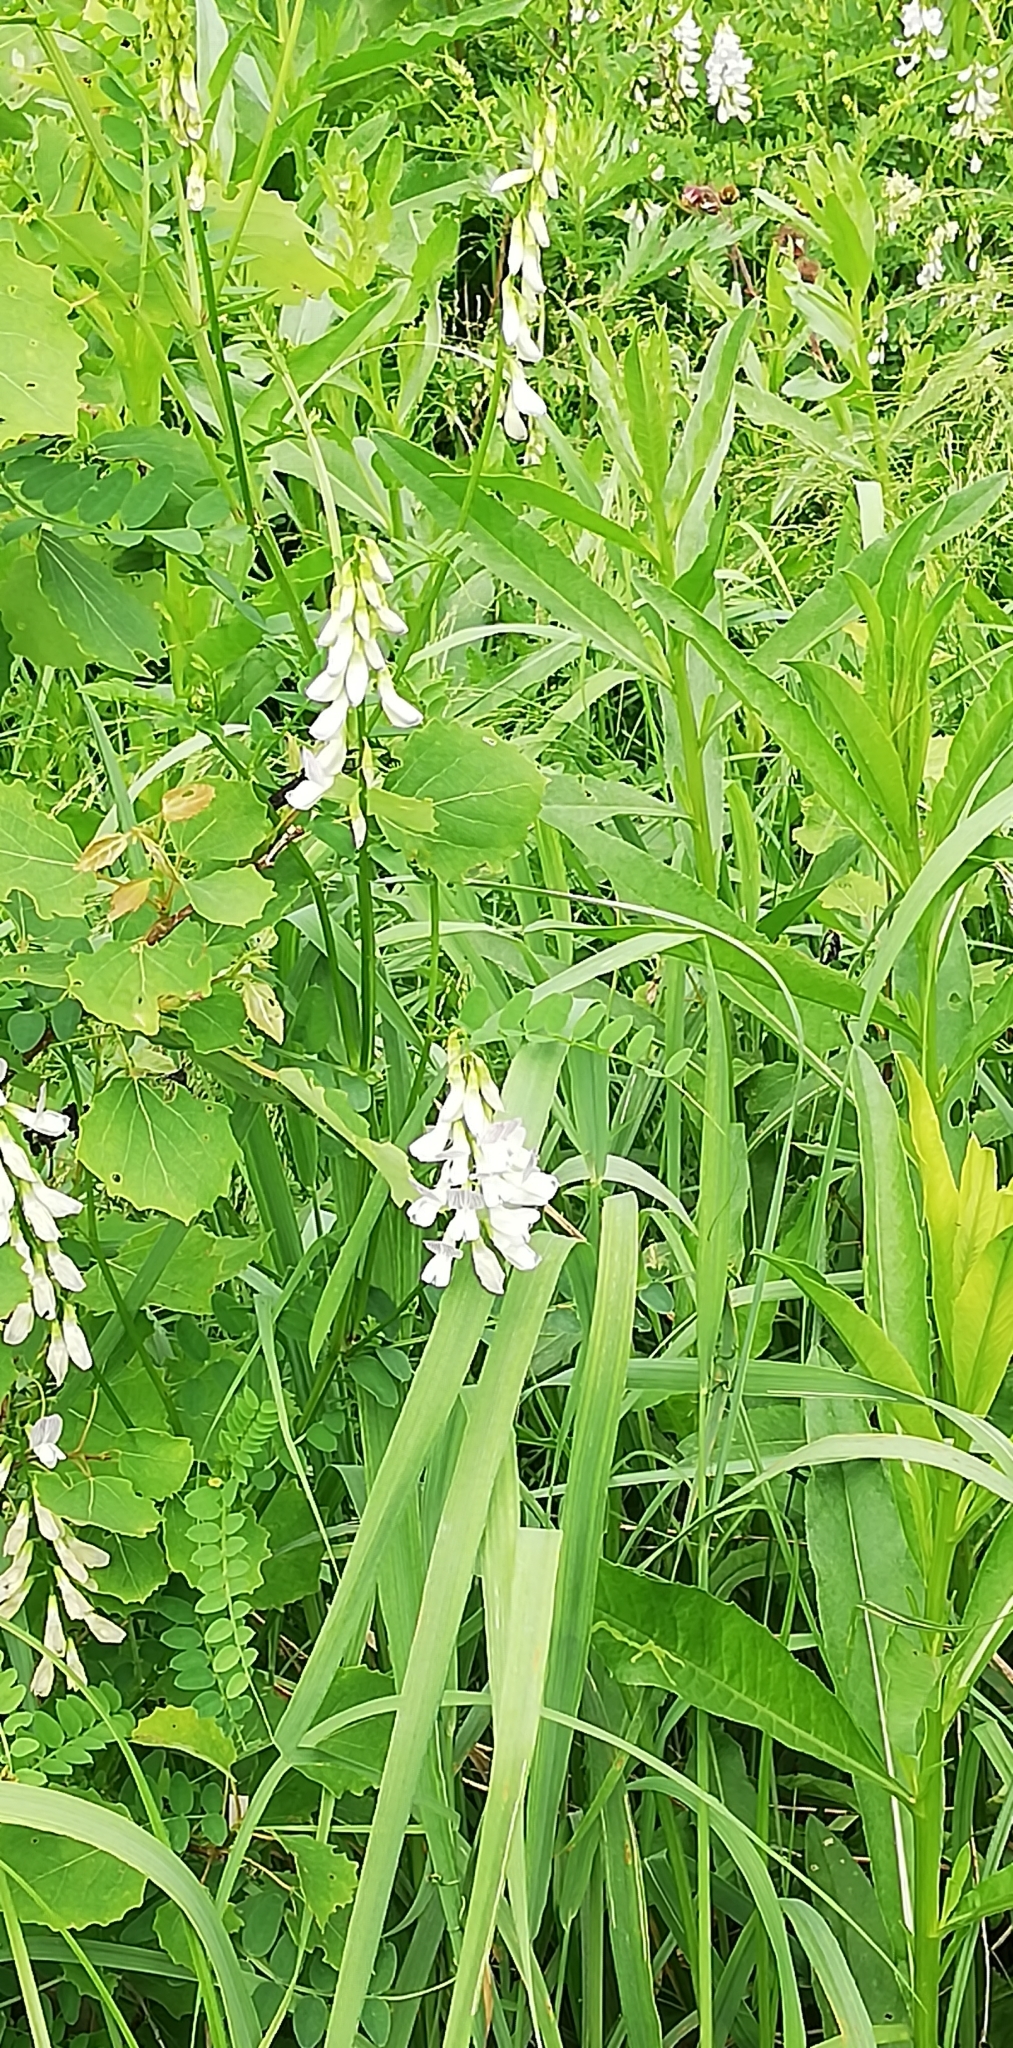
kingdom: Plantae
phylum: Tracheophyta
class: Magnoliopsida
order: Fabales
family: Fabaceae
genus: Vicia
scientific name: Vicia sylvatica
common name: Wood vetch
